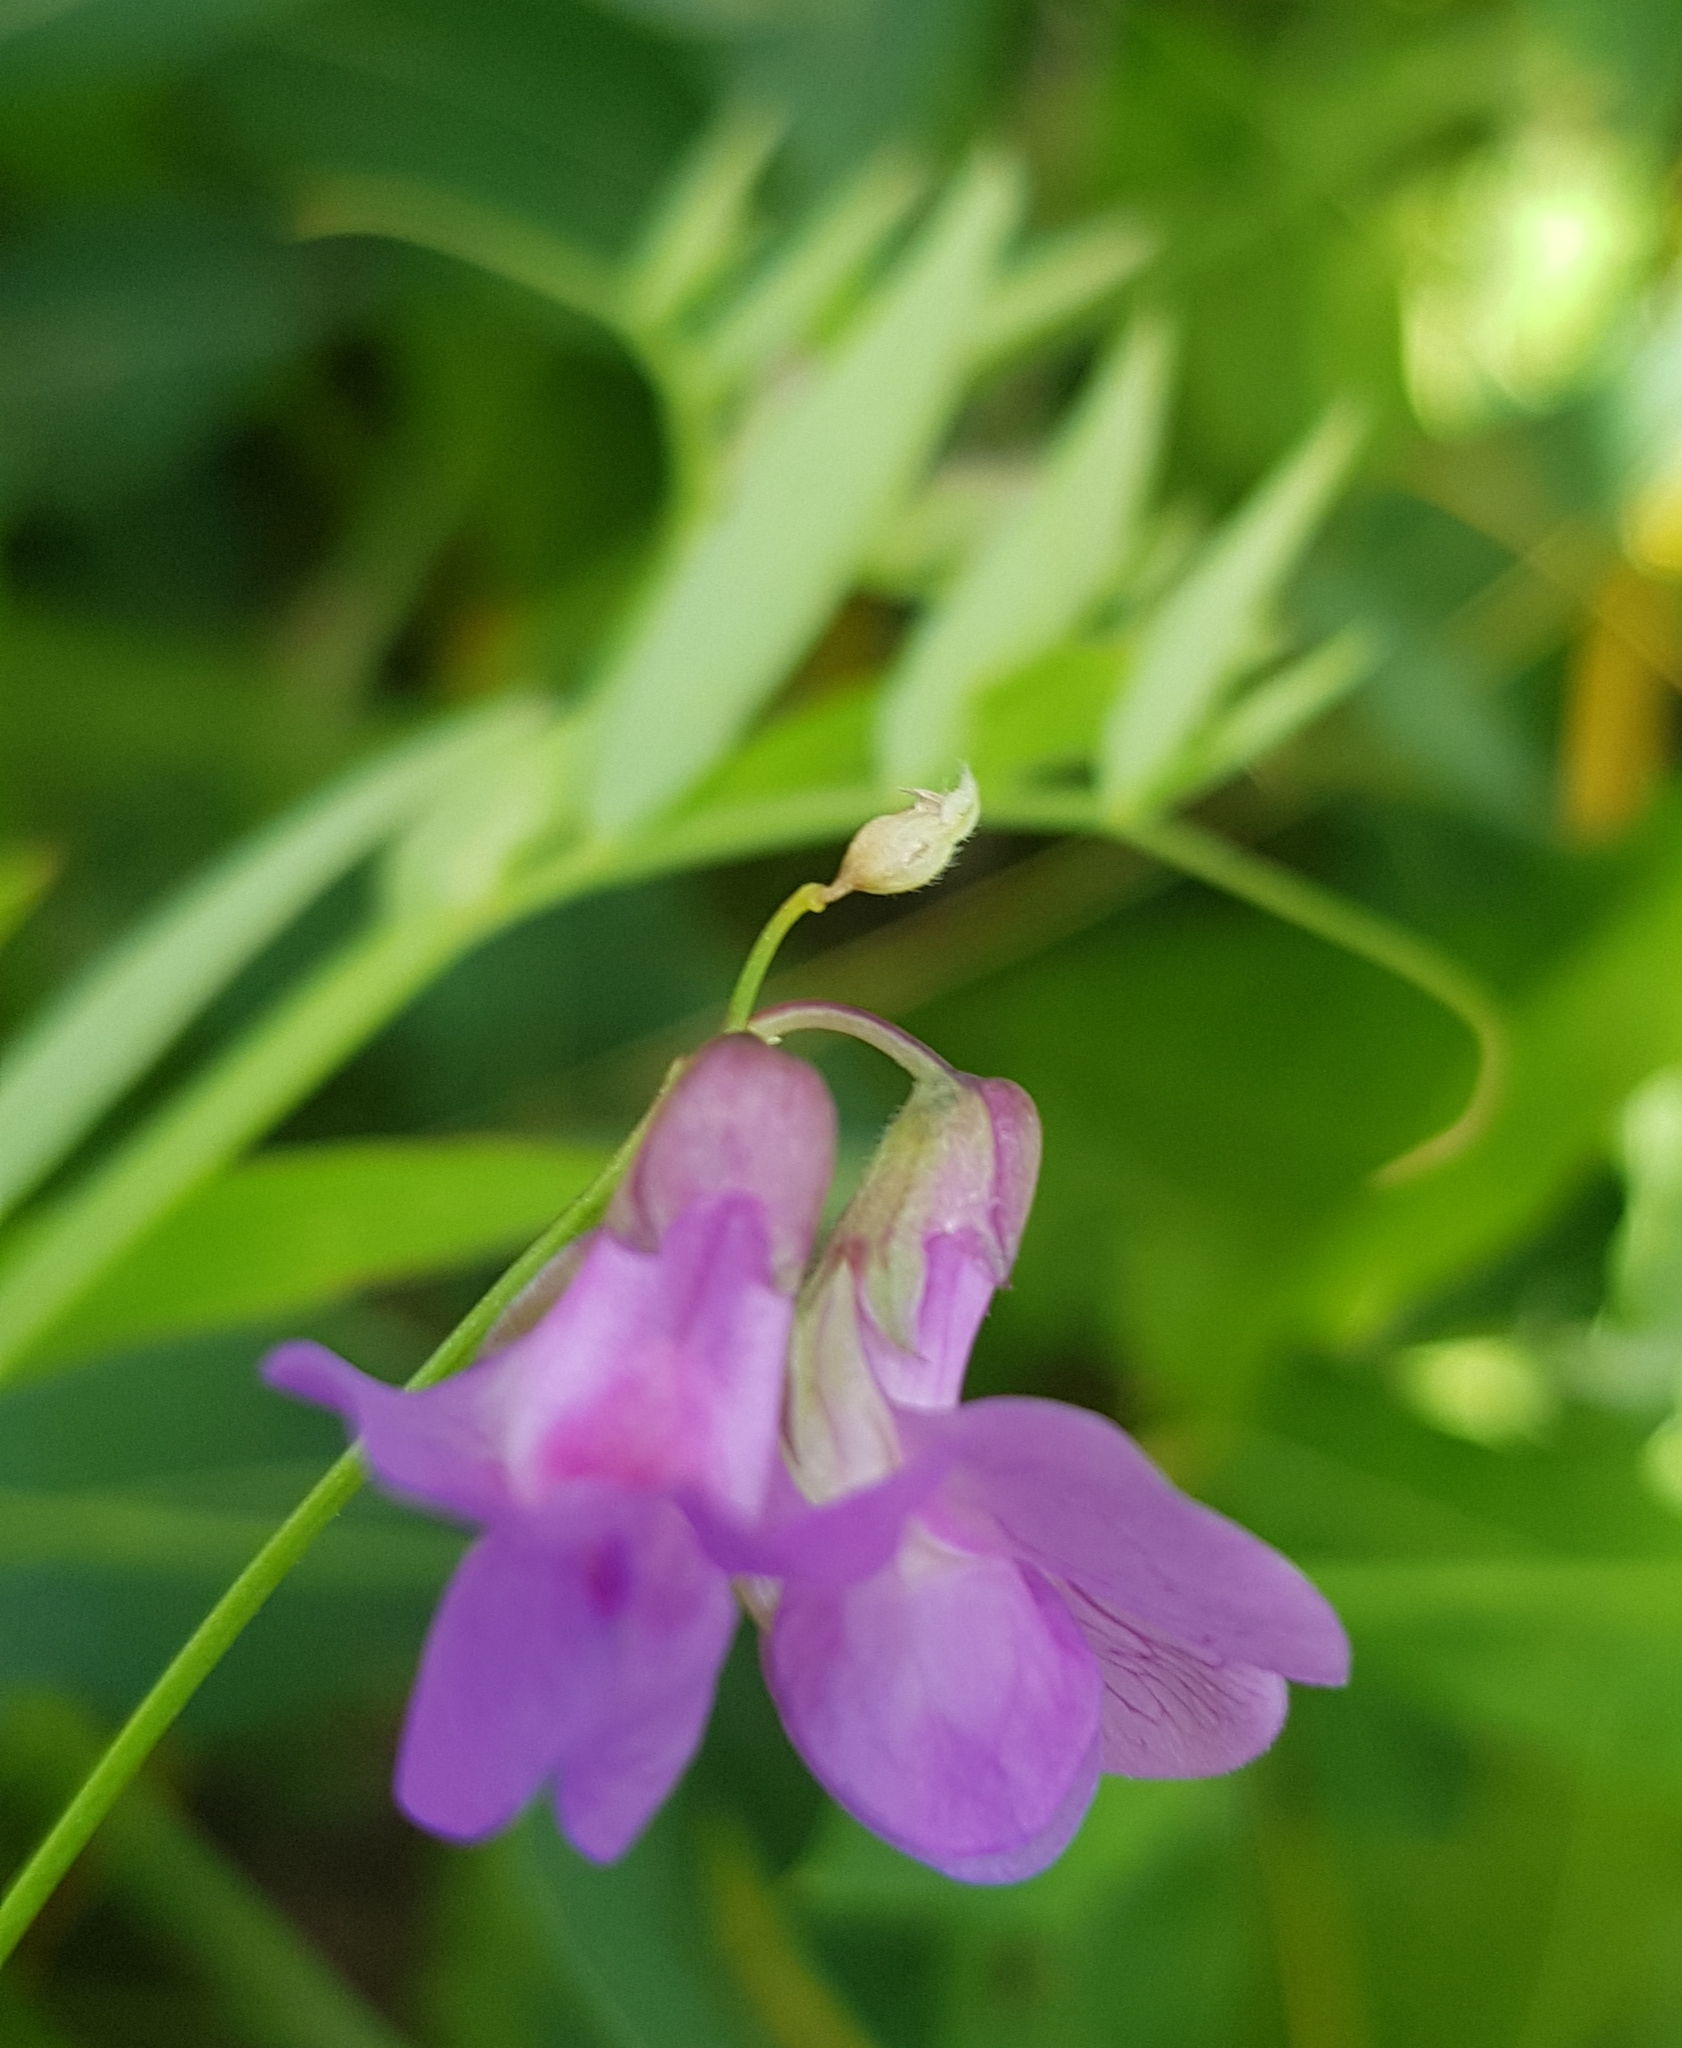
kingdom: Plantae
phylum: Tracheophyta
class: Magnoliopsida
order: Fabales
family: Fabaceae
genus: Lathyrus
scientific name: Lathyrus humilis
